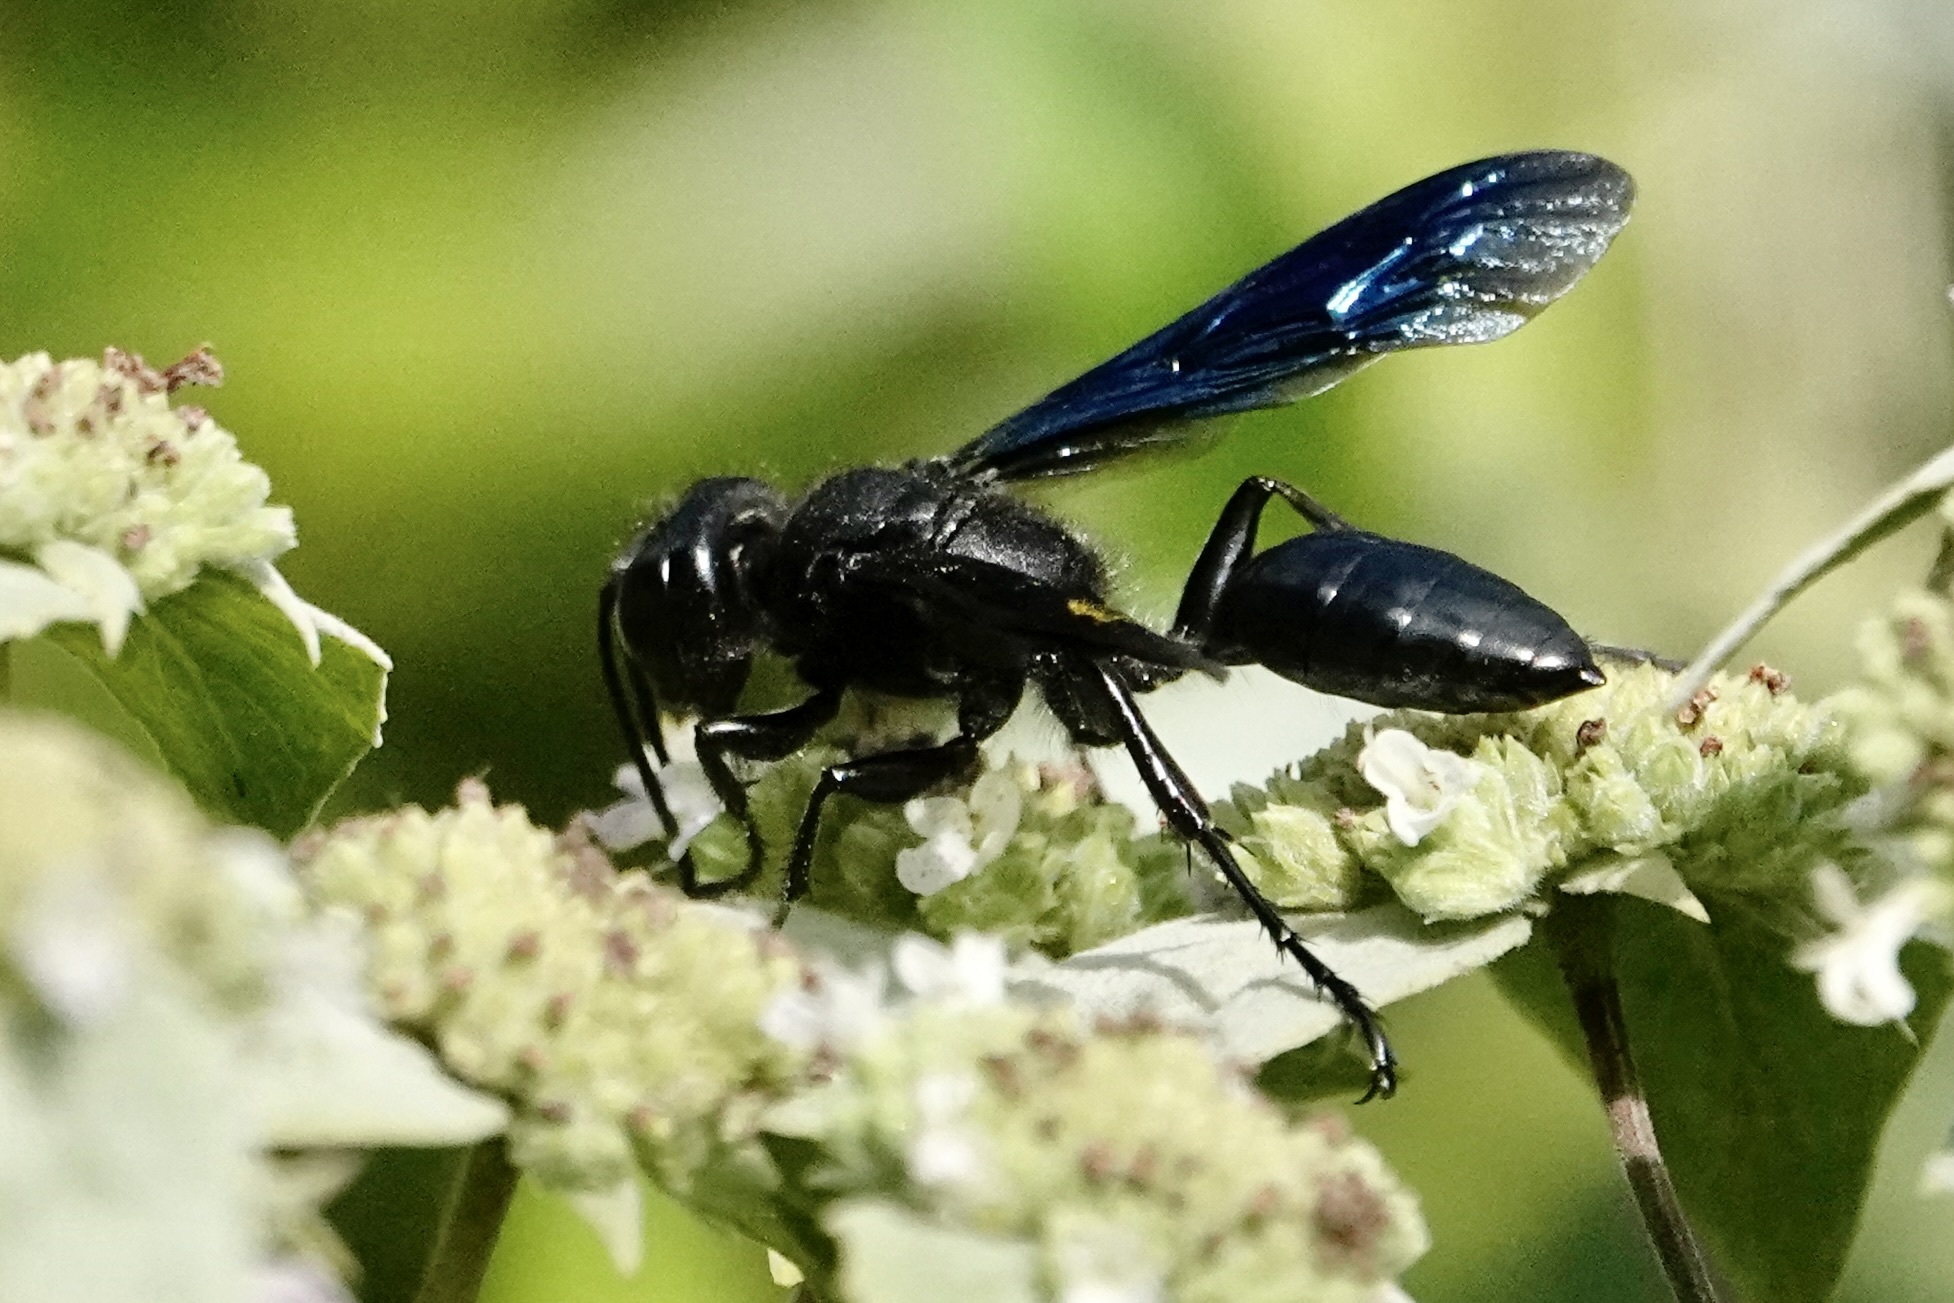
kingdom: Animalia
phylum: Arthropoda
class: Insecta
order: Hymenoptera
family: Sphecidae
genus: Isodontia
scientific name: Isodontia philadelphica
